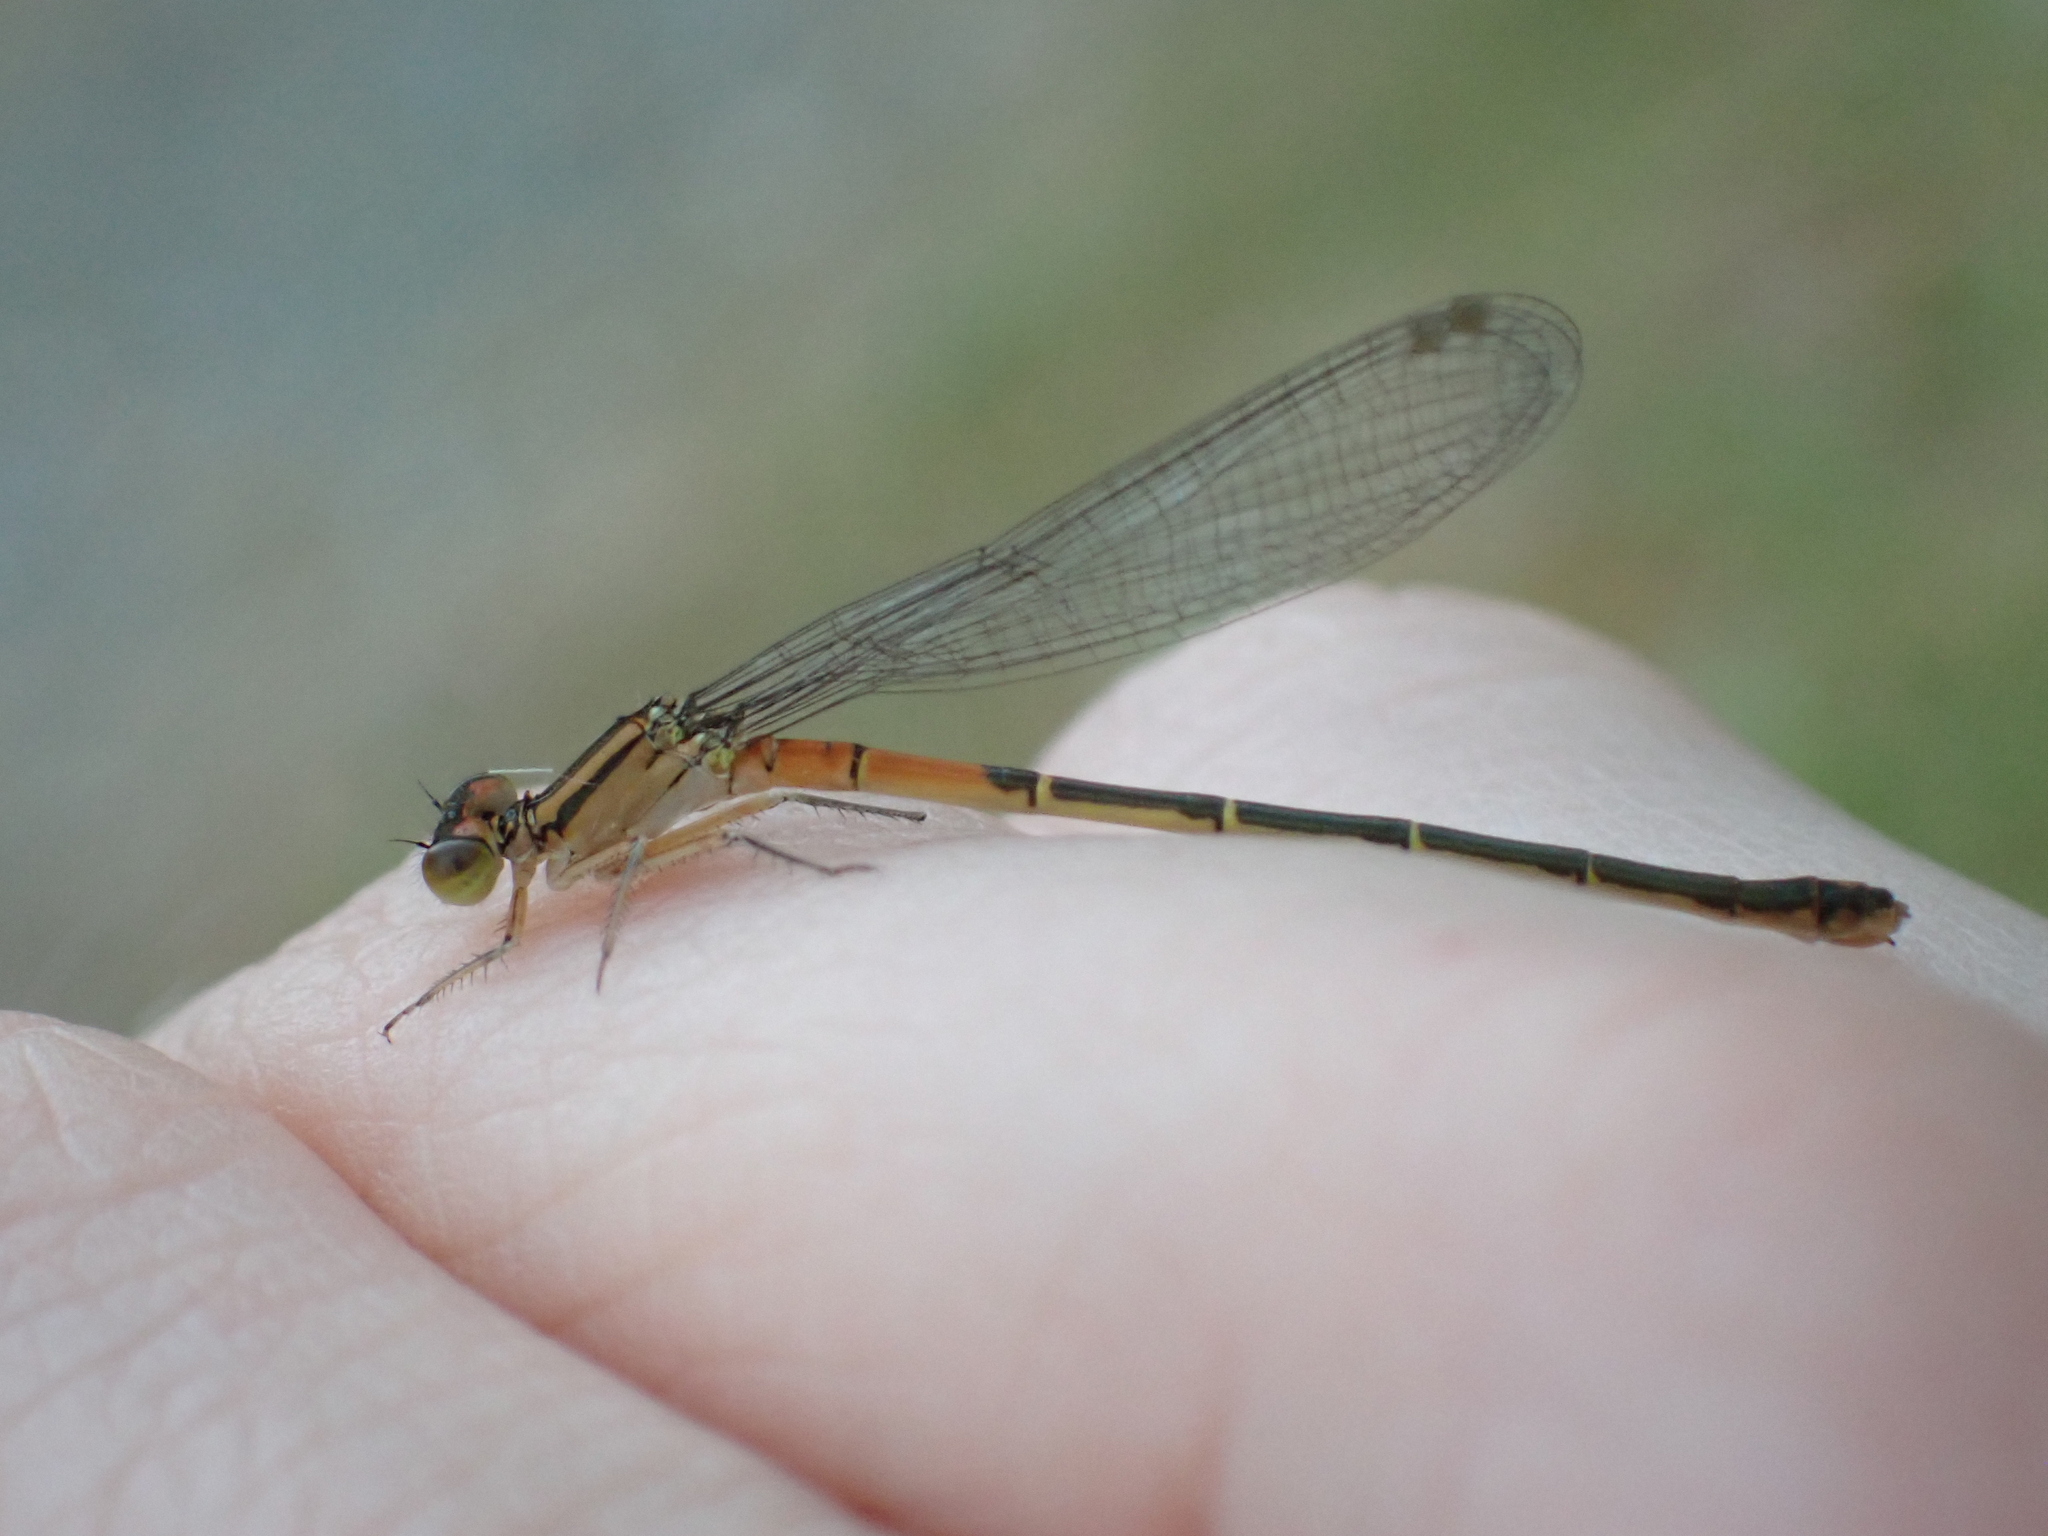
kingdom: Animalia
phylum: Arthropoda
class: Insecta
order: Odonata
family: Coenagrionidae
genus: Ischnura
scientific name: Ischnura perparva
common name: Western forktail
